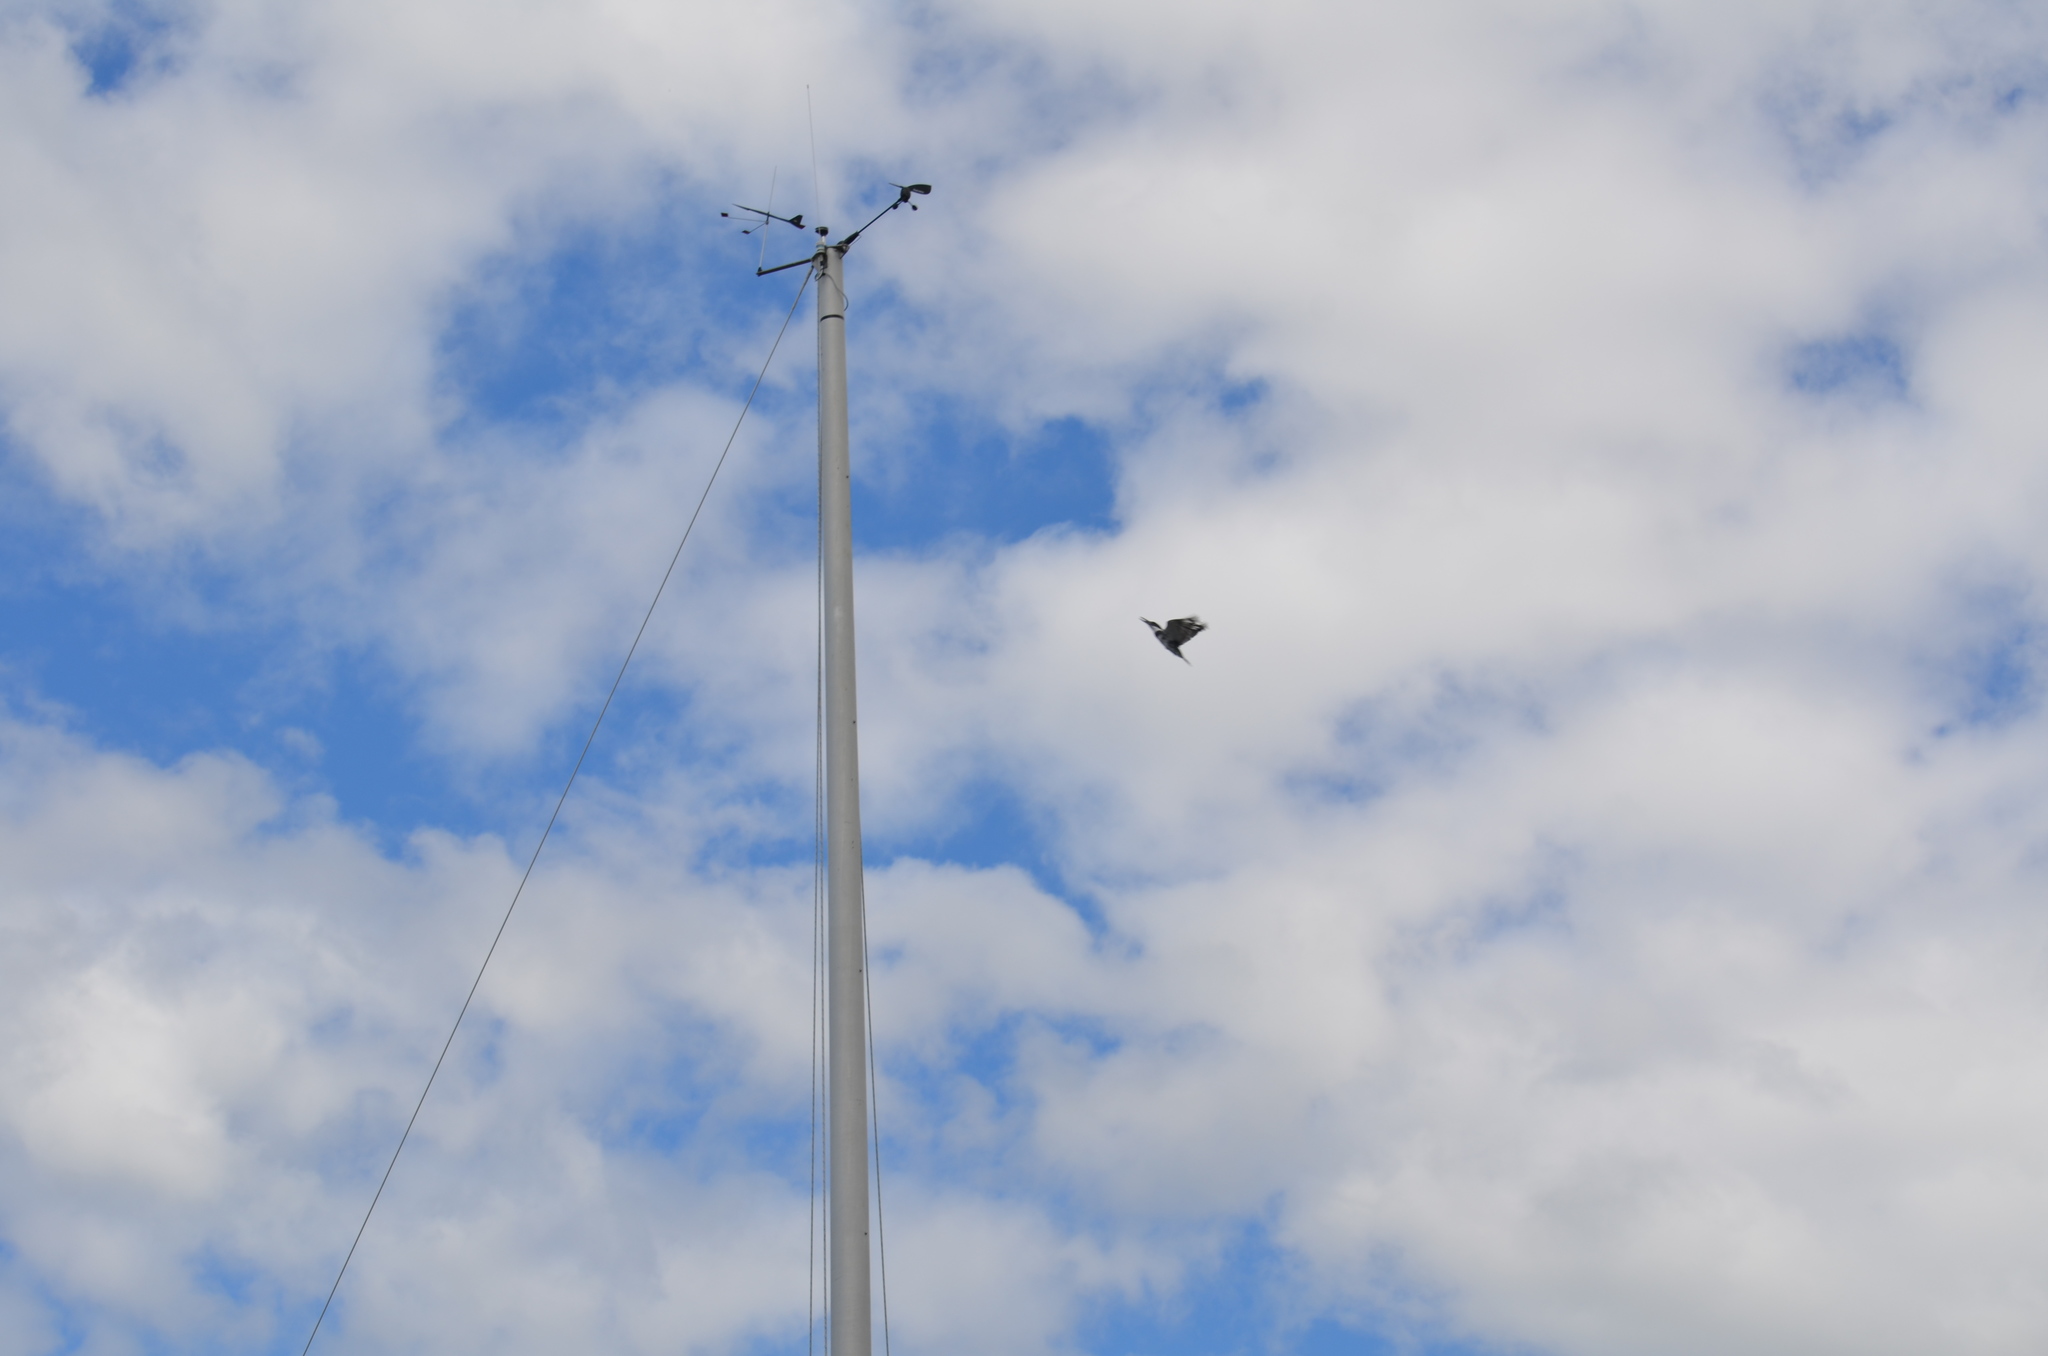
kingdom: Animalia
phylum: Chordata
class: Aves
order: Coraciiformes
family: Alcedinidae
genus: Megaceryle
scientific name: Megaceryle alcyon
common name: Belted kingfisher
